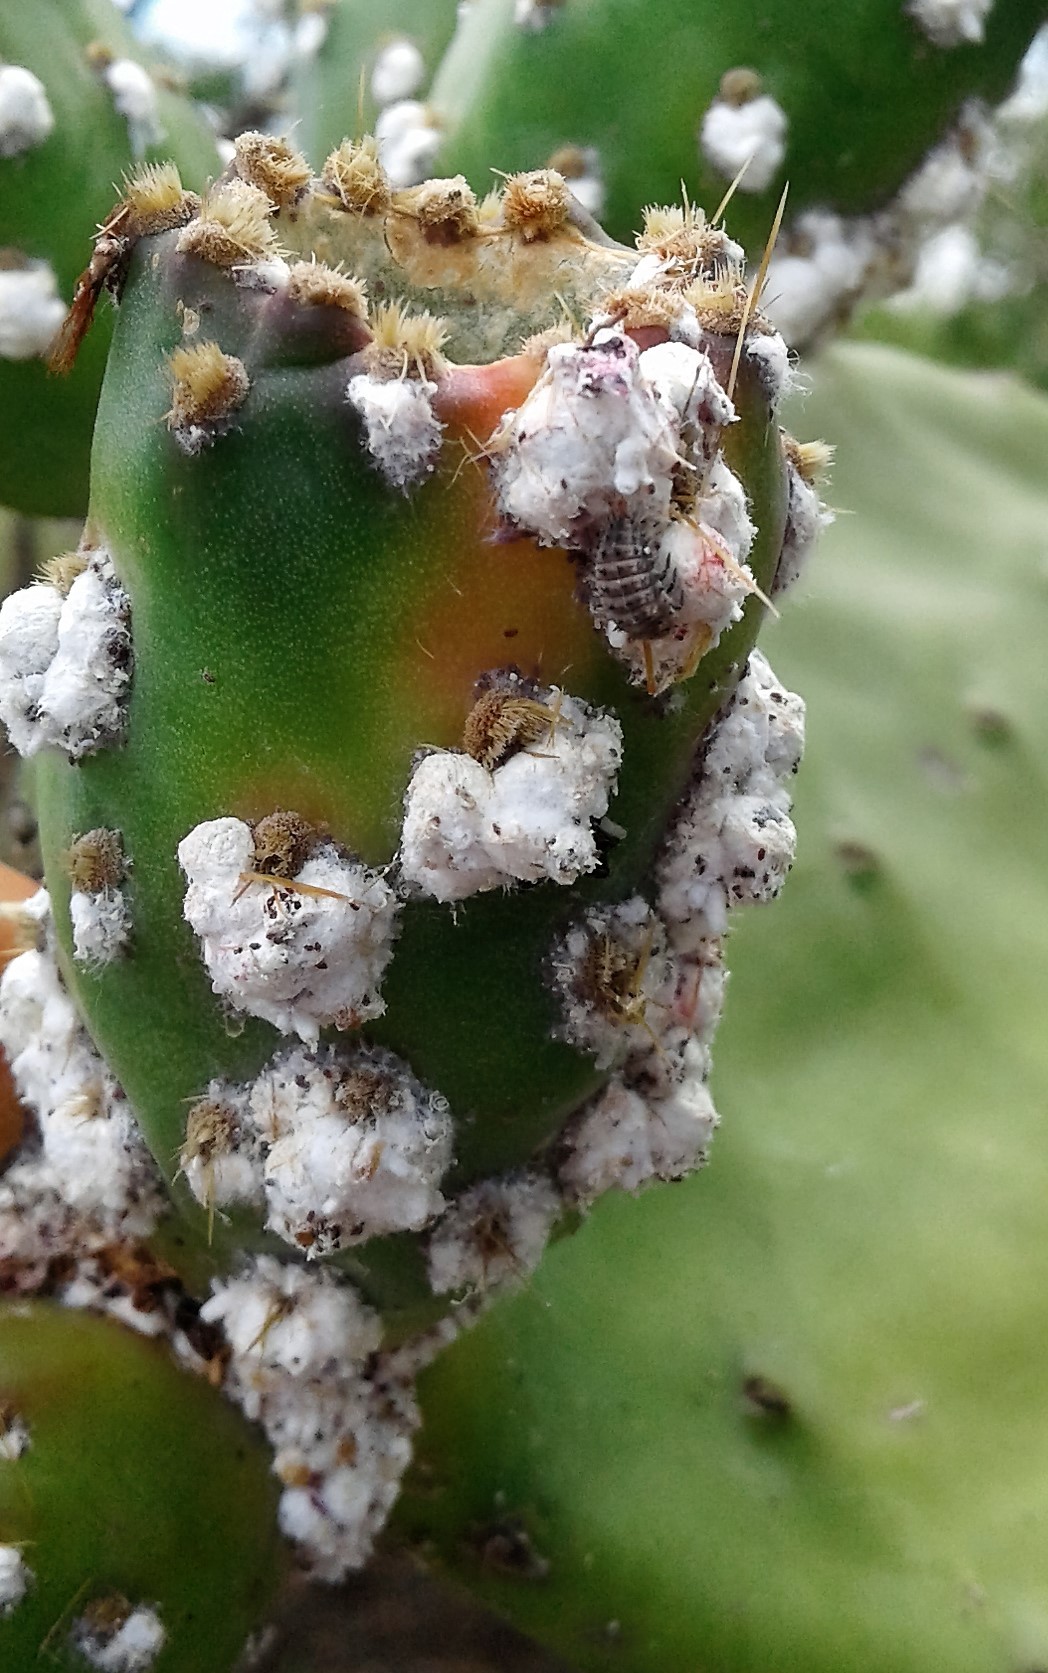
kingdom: Animalia
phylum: Arthropoda
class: Insecta
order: Coleoptera
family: Coccinellidae
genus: Exochomus
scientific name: Exochomus
